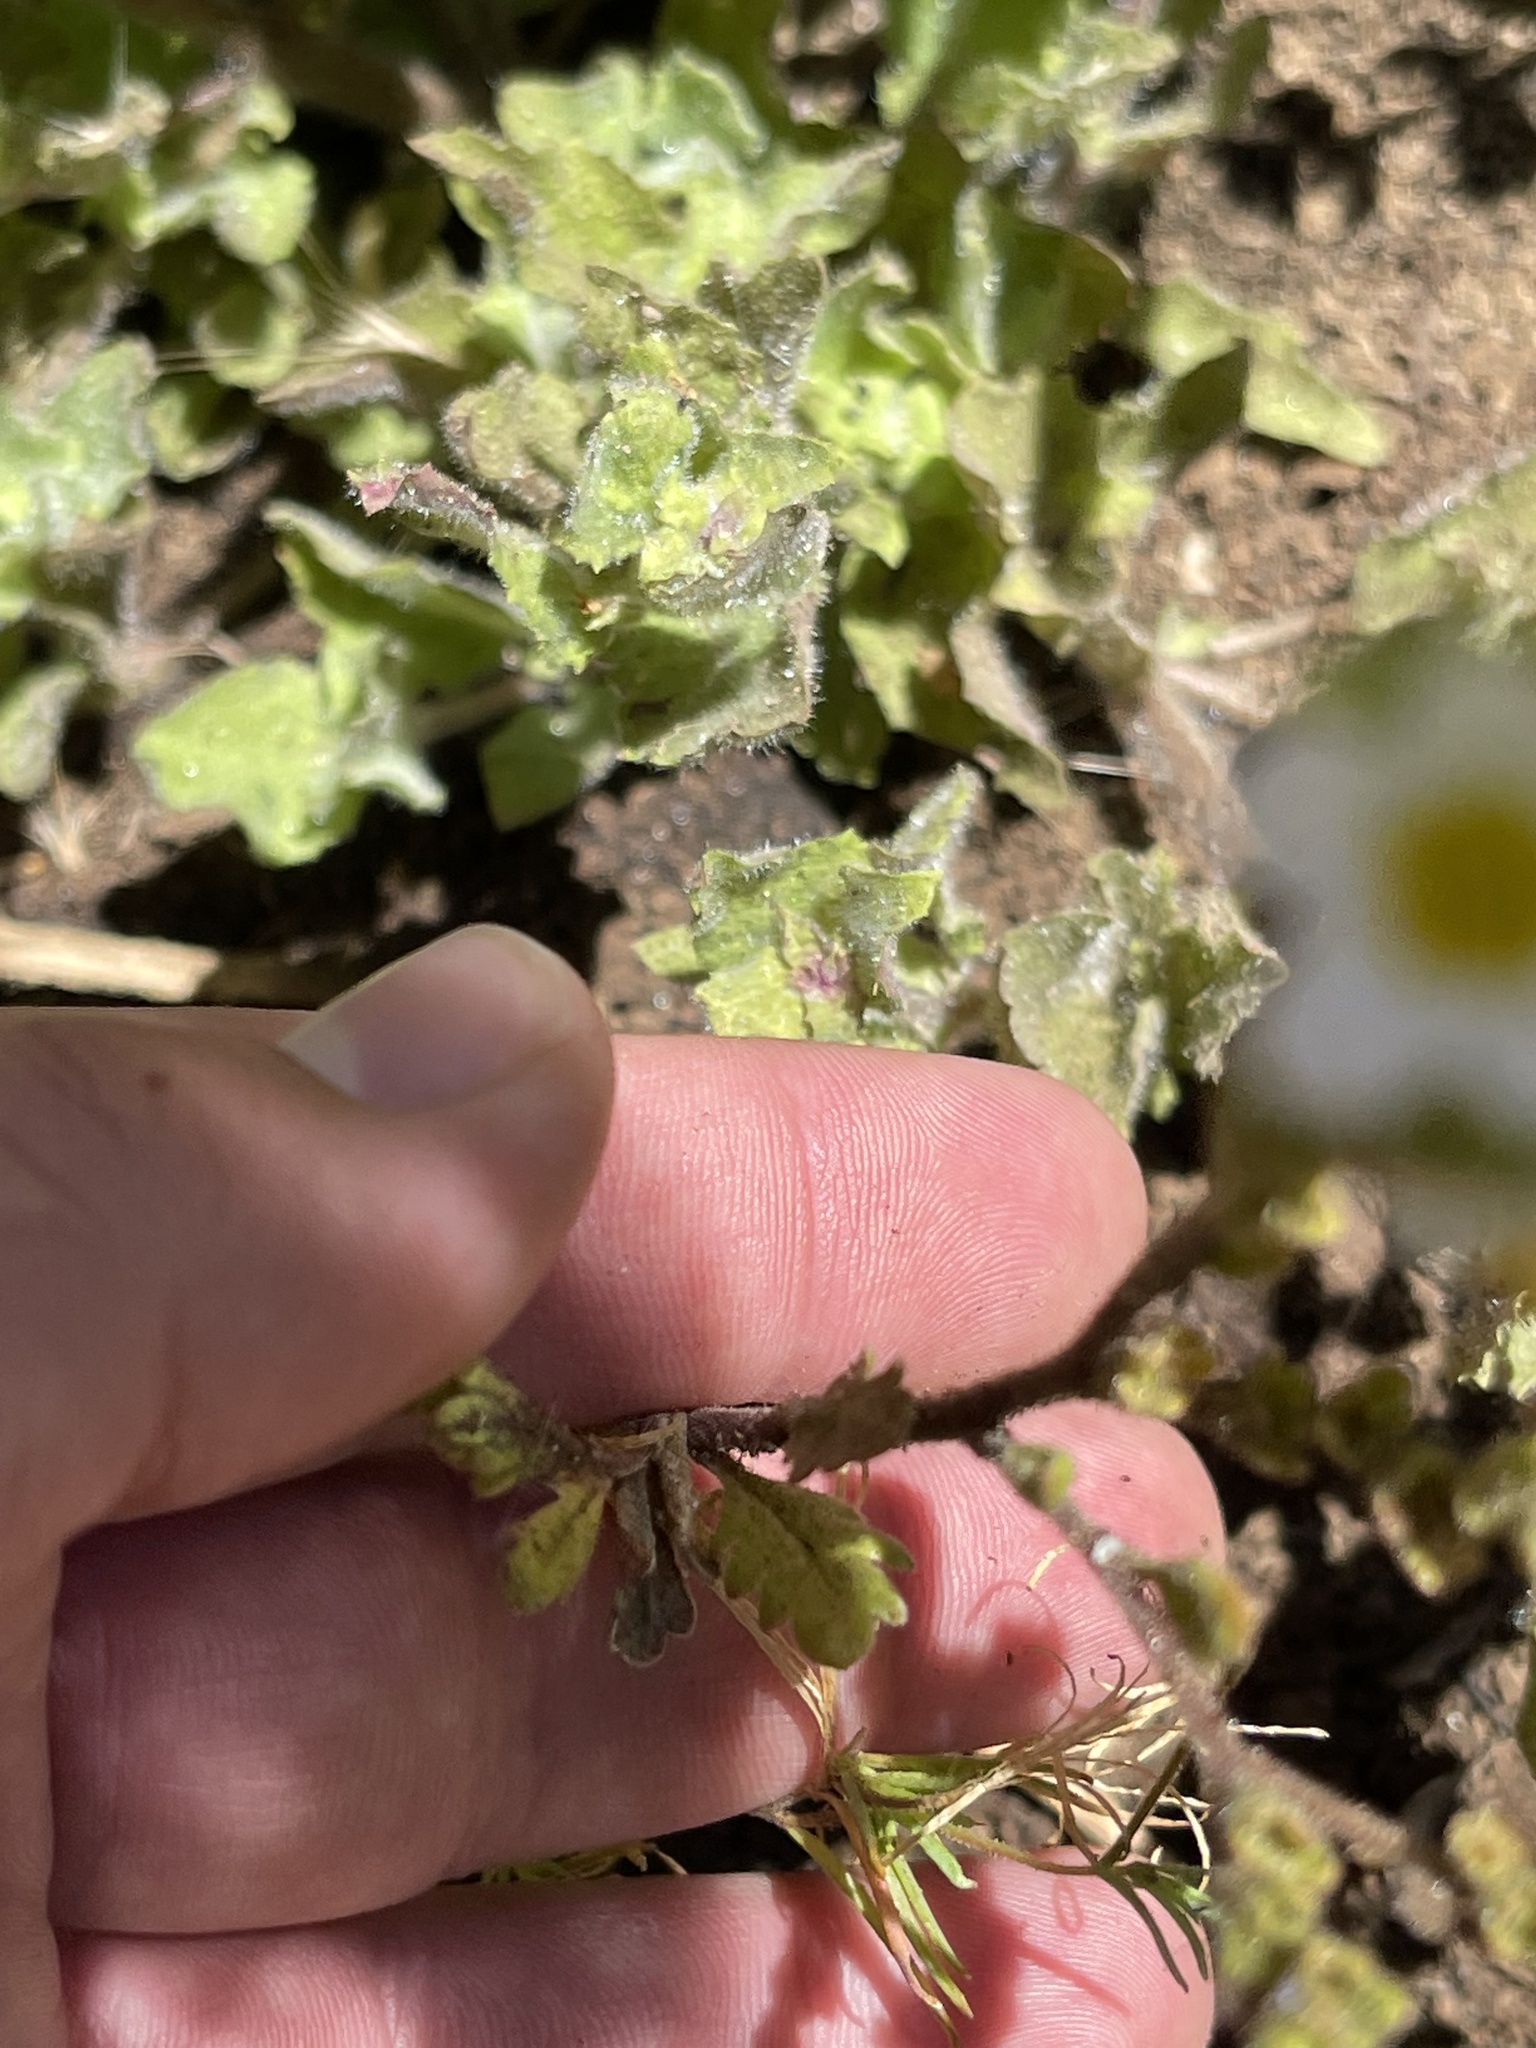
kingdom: Plantae
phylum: Tracheophyta
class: Magnoliopsida
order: Boraginales
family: Hydrophyllaceae
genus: Phacelia
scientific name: Phacelia brachyloba
